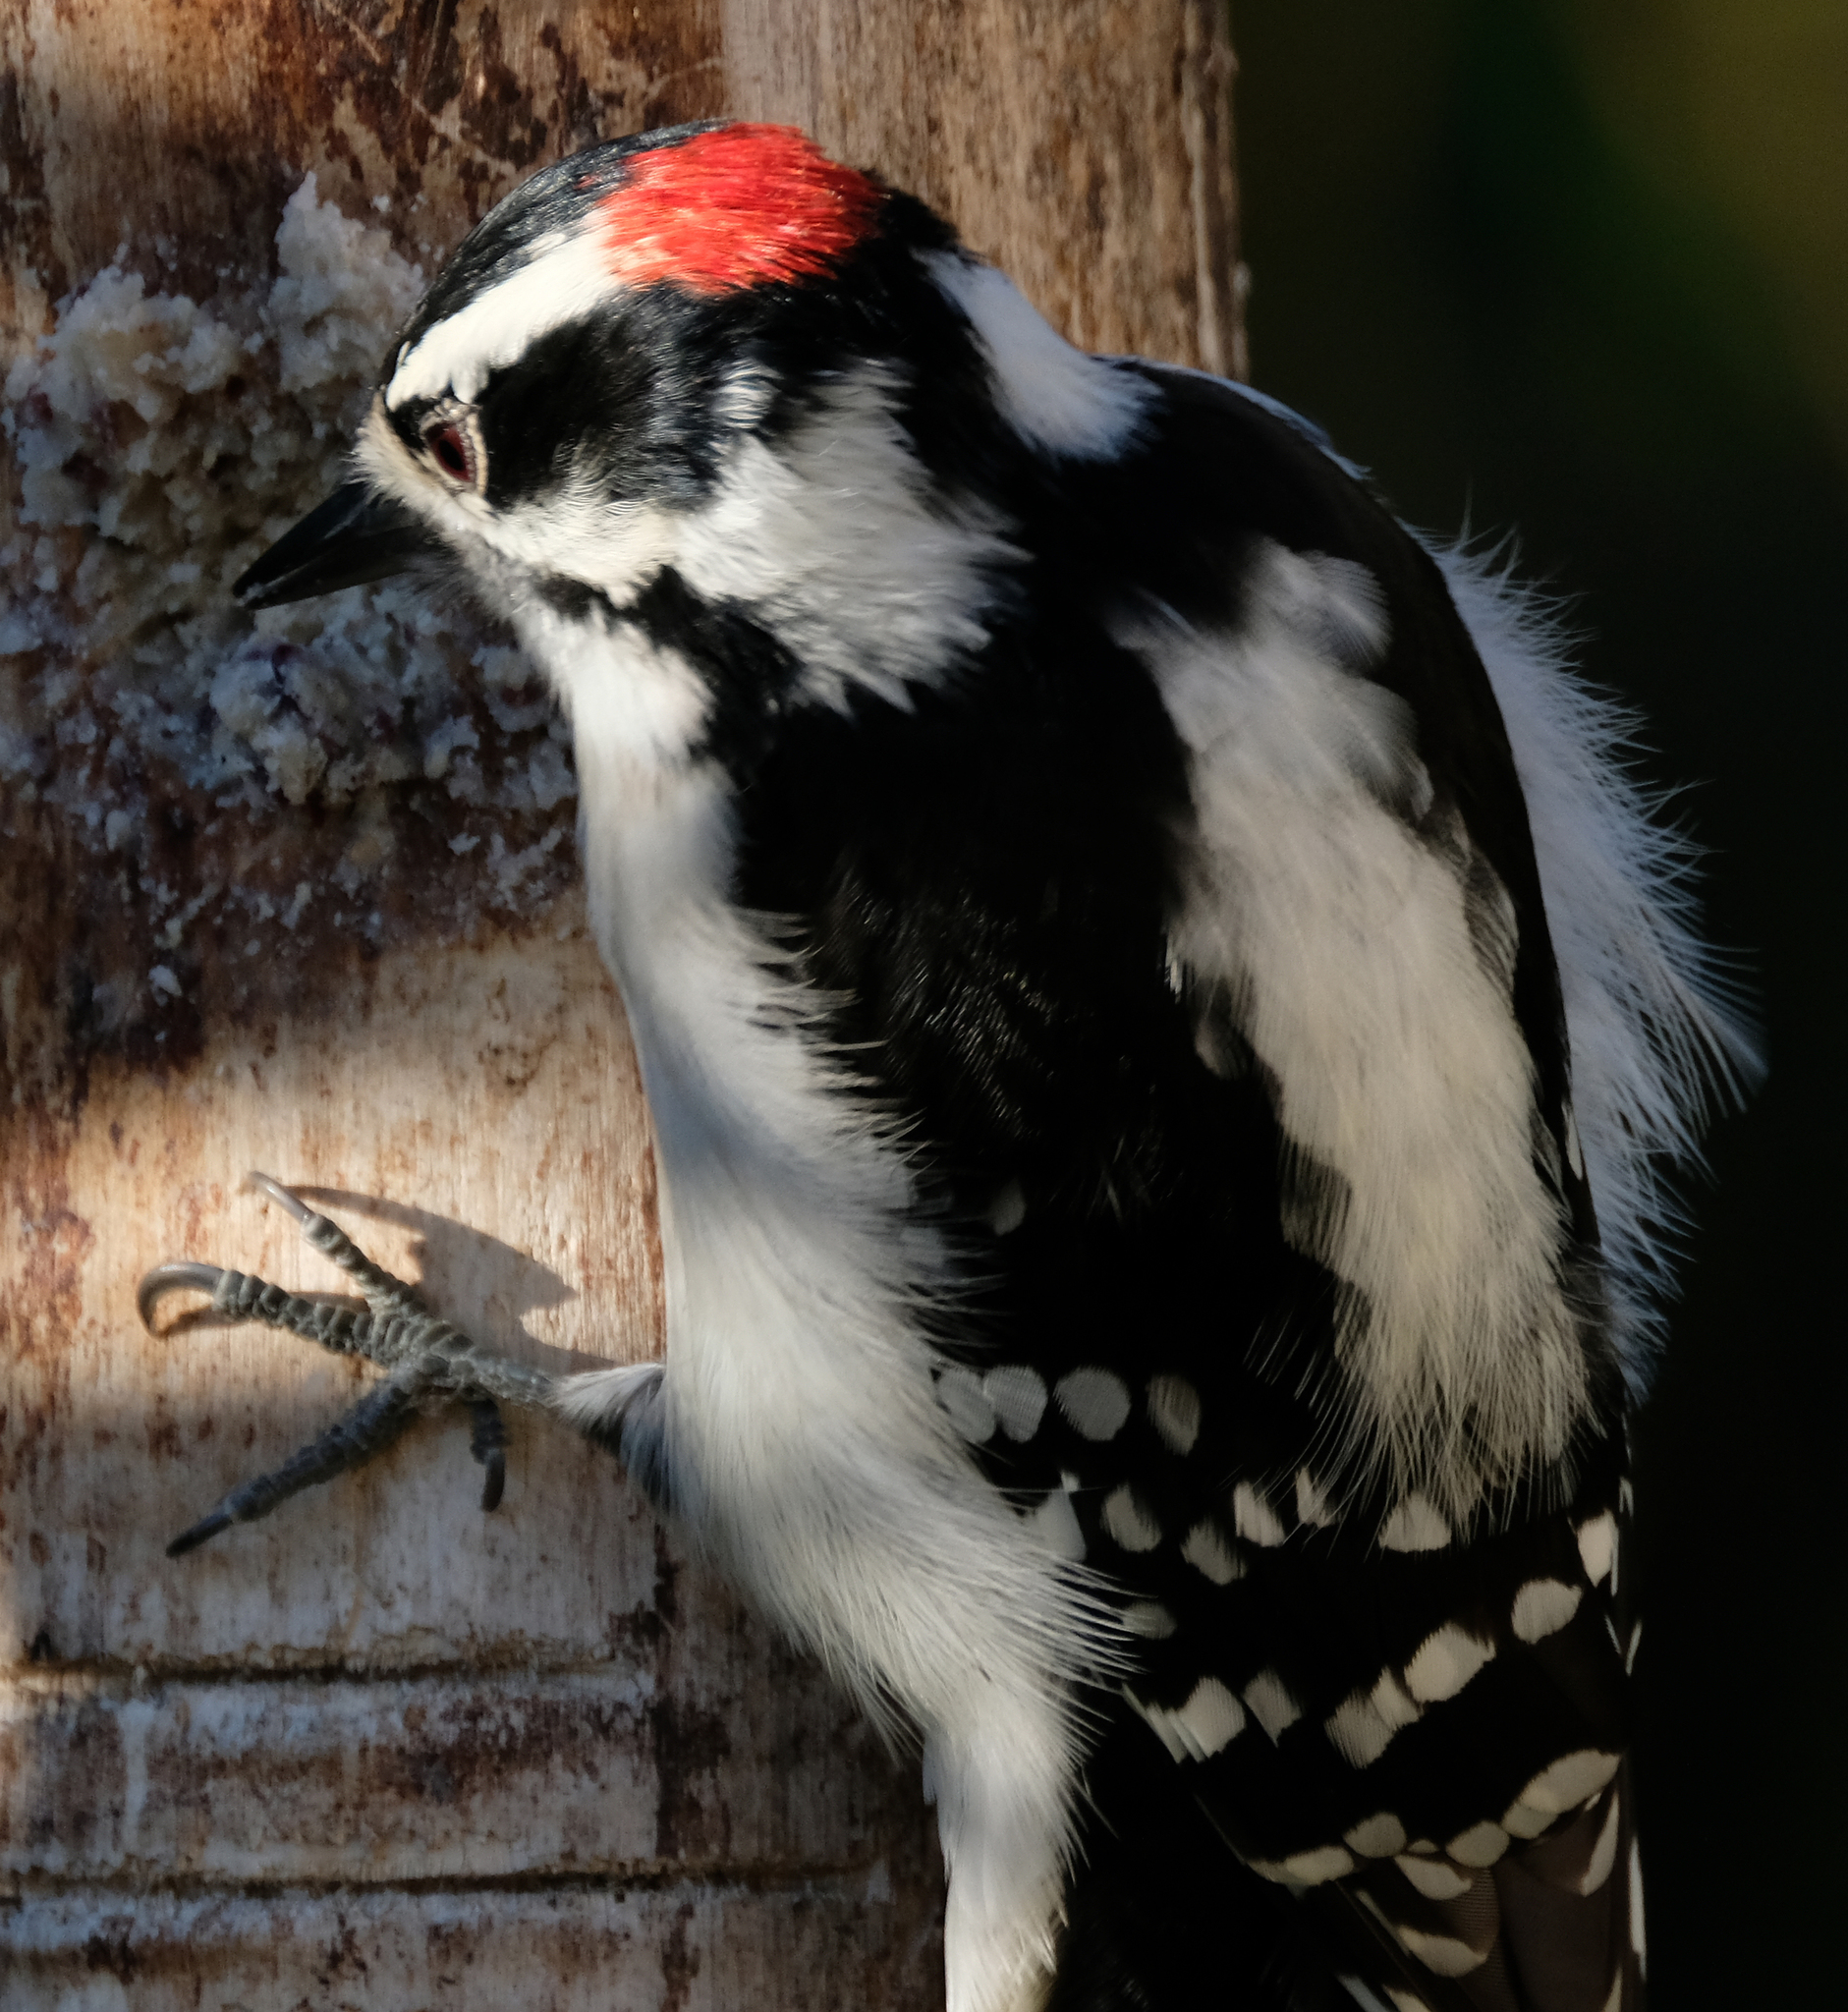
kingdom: Animalia
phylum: Chordata
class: Aves
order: Piciformes
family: Picidae
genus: Dryobates
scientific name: Dryobates pubescens
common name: Downy woodpecker
